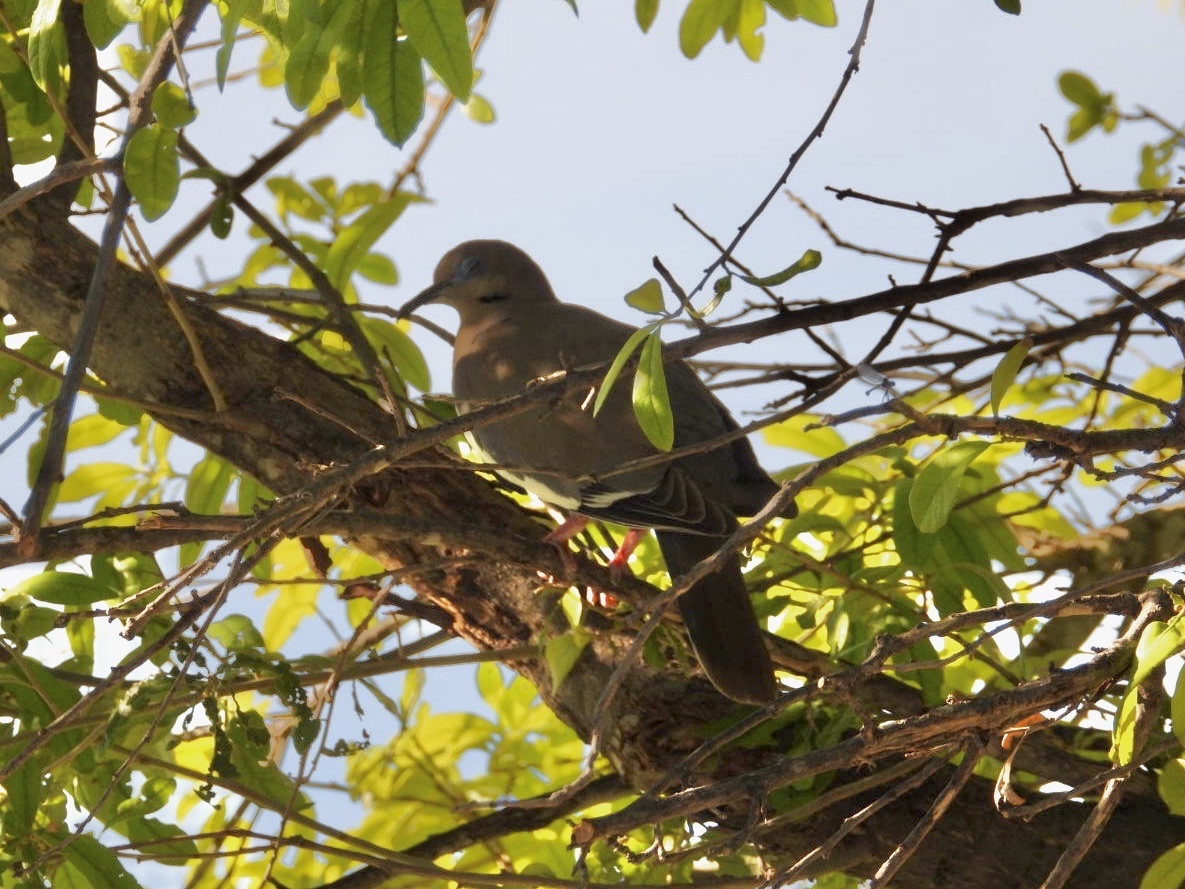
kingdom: Animalia
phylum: Chordata
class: Aves
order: Columbiformes
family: Columbidae
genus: Zenaida
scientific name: Zenaida asiatica
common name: White-winged dove
